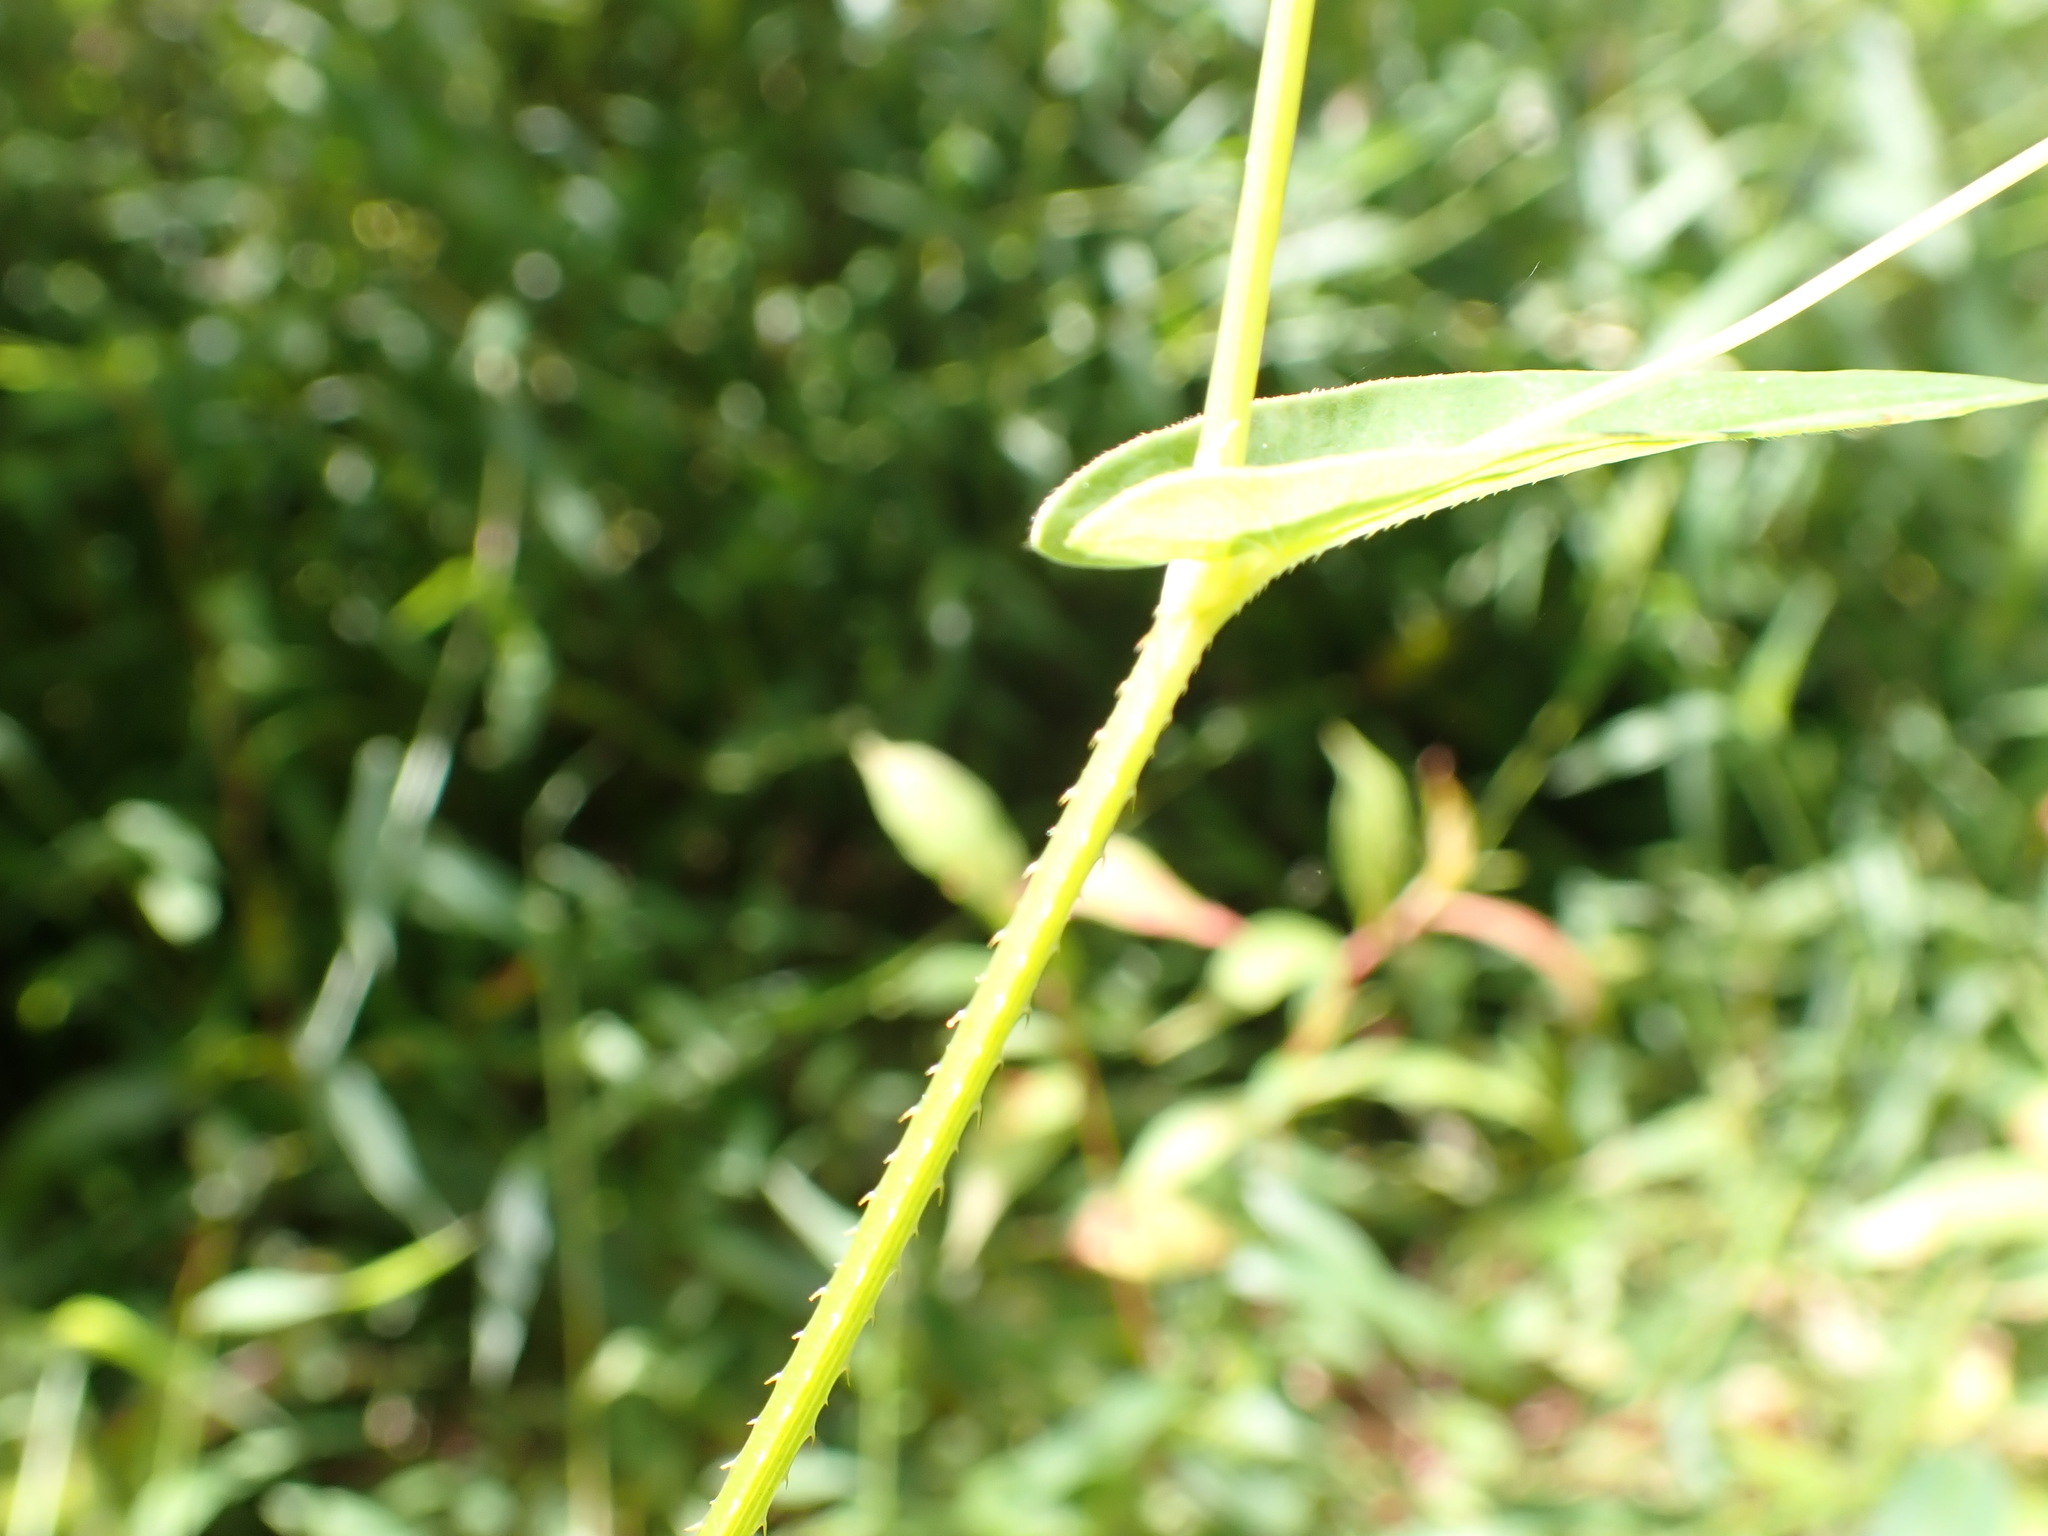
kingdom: Plantae
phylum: Tracheophyta
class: Magnoliopsida
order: Caryophyllales
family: Polygonaceae
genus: Persicaria
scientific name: Persicaria sagittata
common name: American tearthumb
